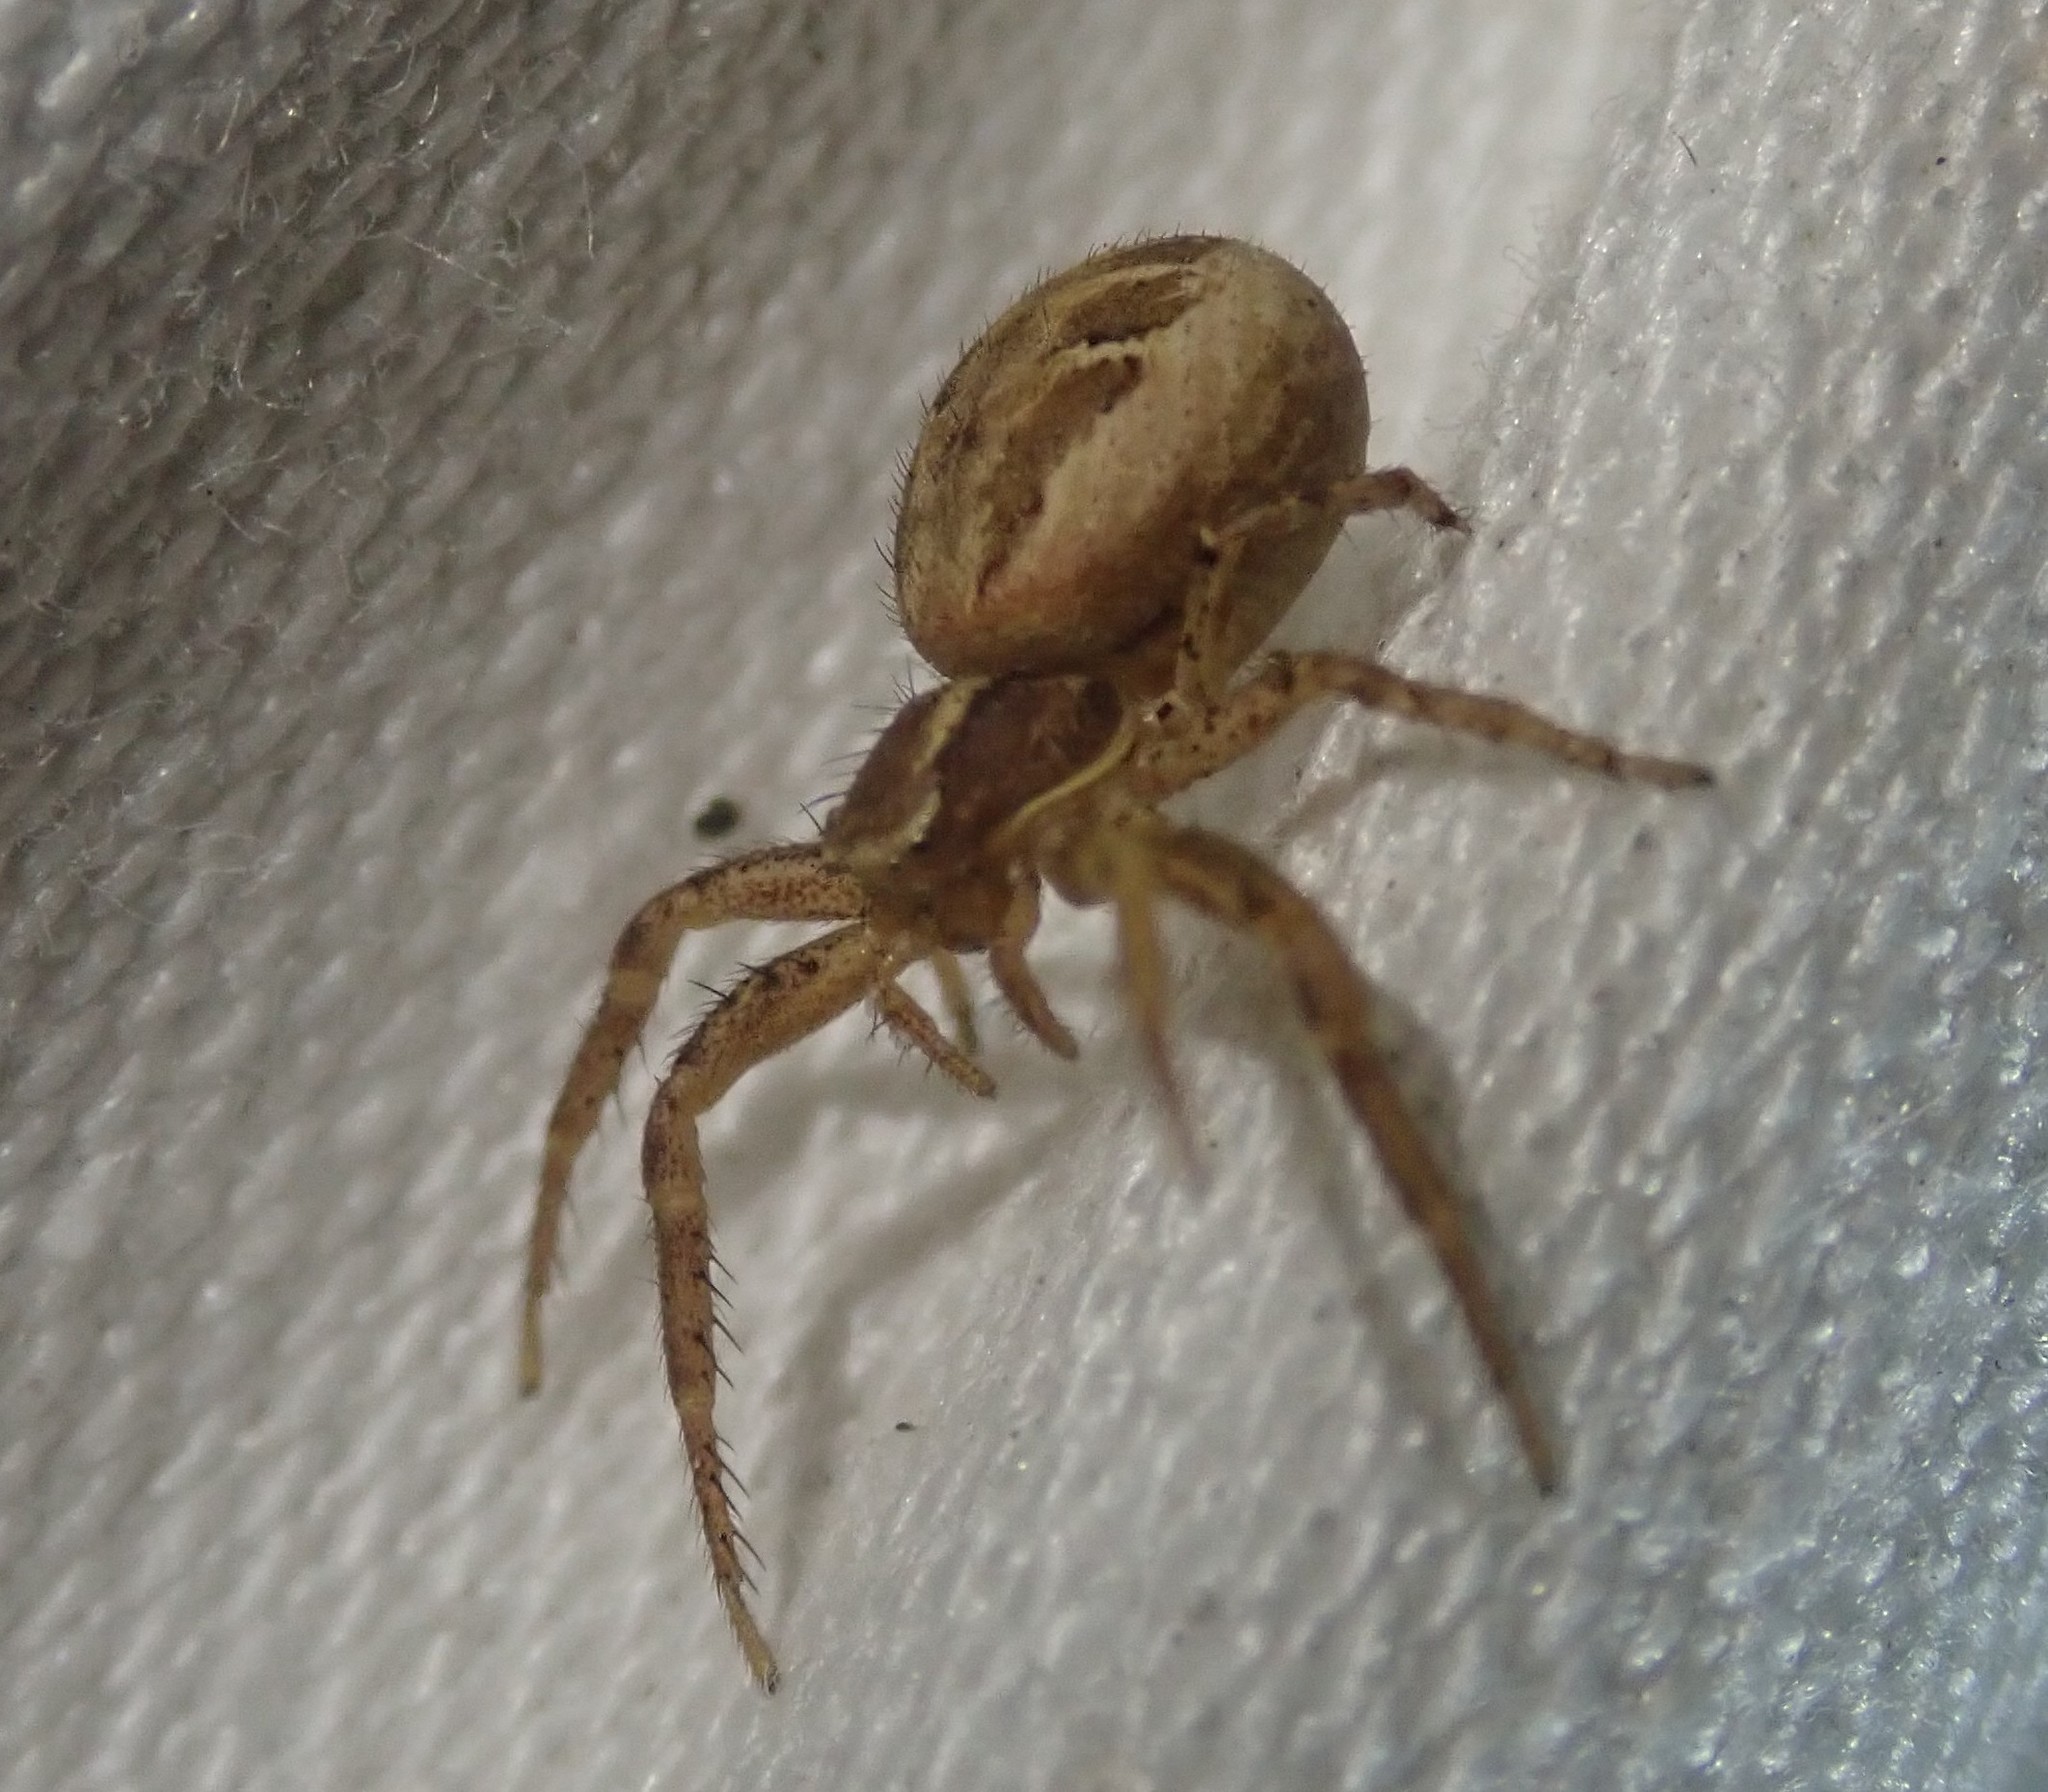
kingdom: Animalia
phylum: Arthropoda
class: Arachnida
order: Araneae
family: Thomisidae
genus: Xysticus
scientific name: Xysticus
